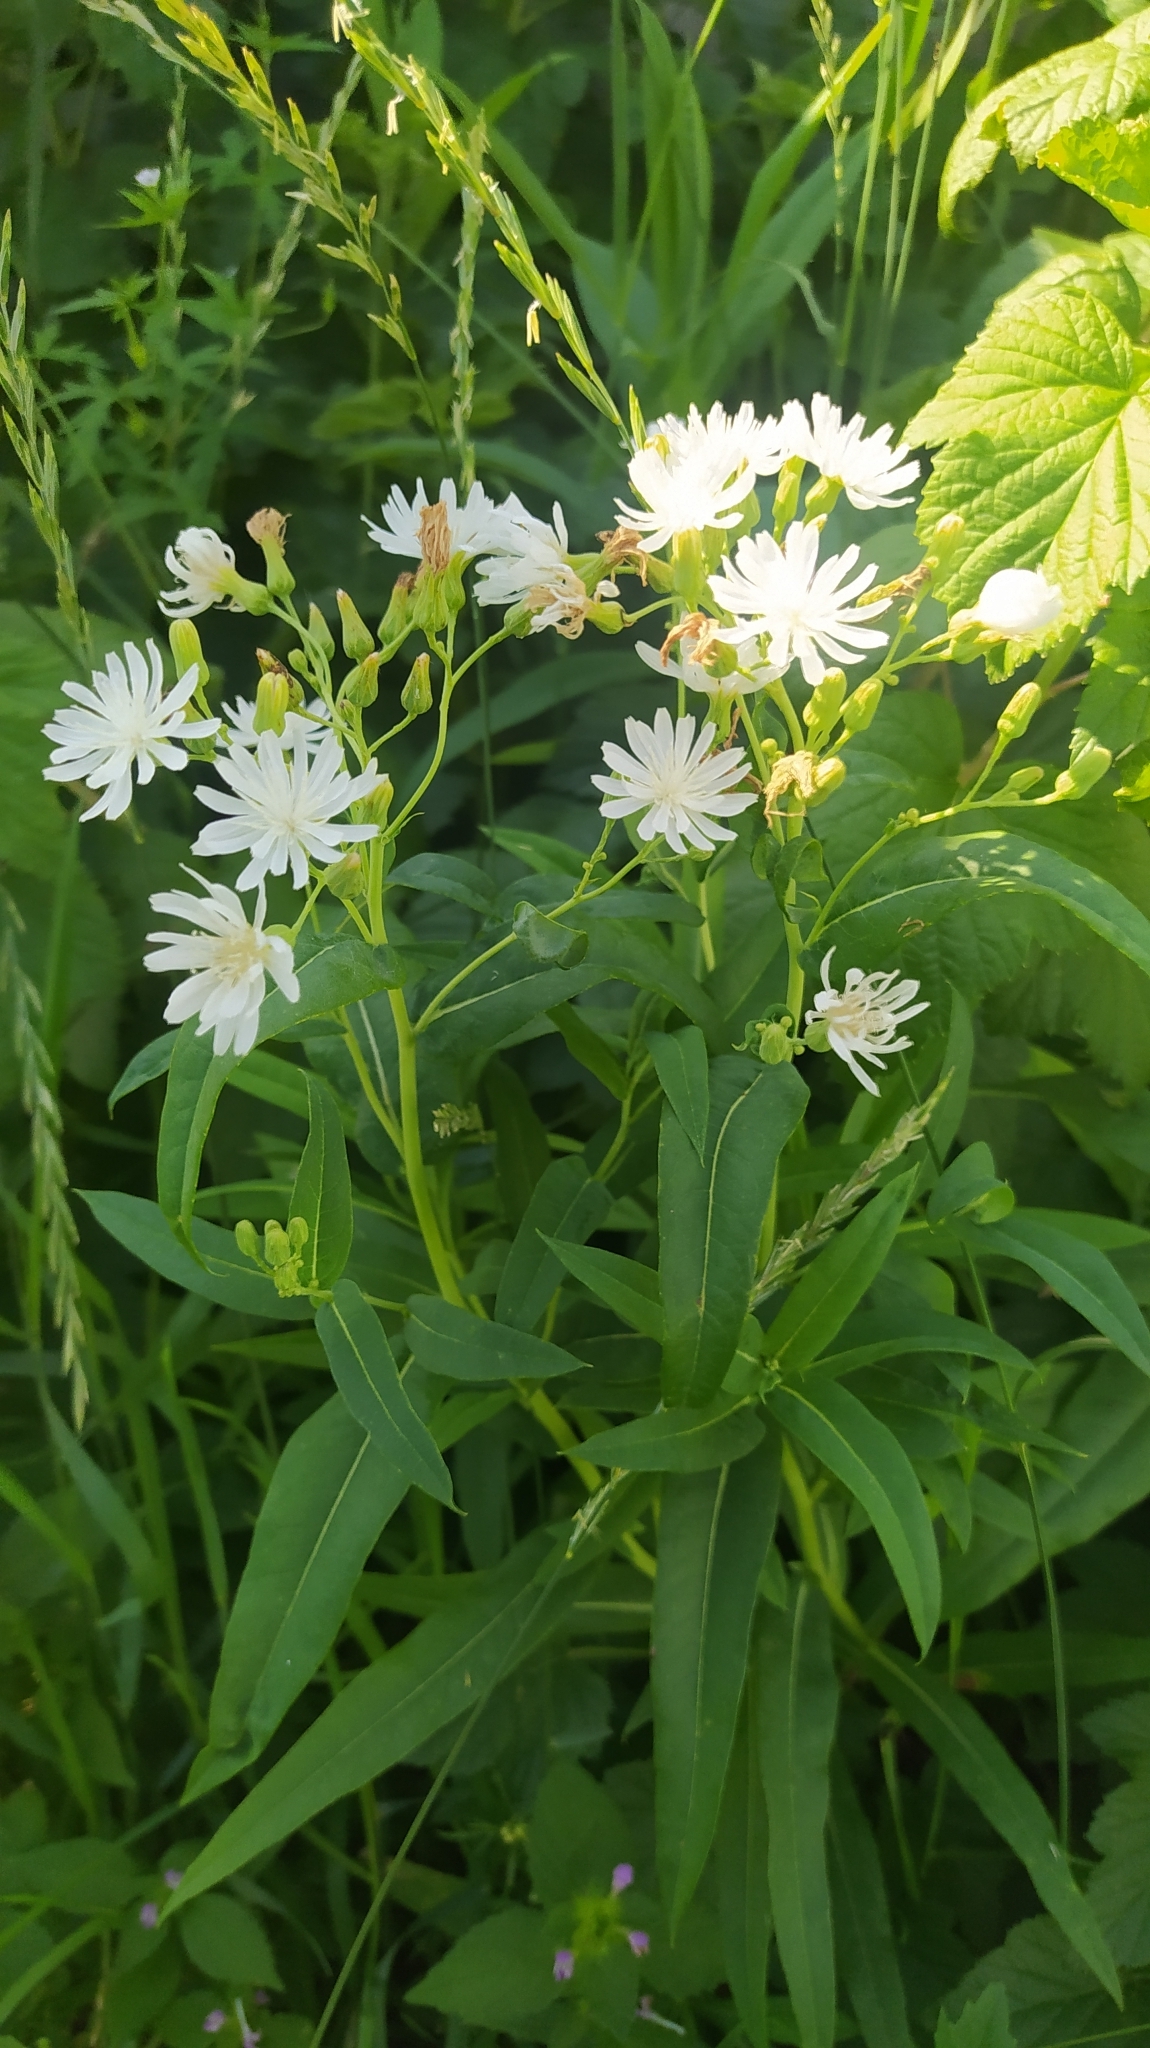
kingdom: Plantae
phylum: Tracheophyta
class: Magnoliopsida
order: Asterales
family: Asteraceae
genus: Lactuca
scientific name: Lactuca sibirica
